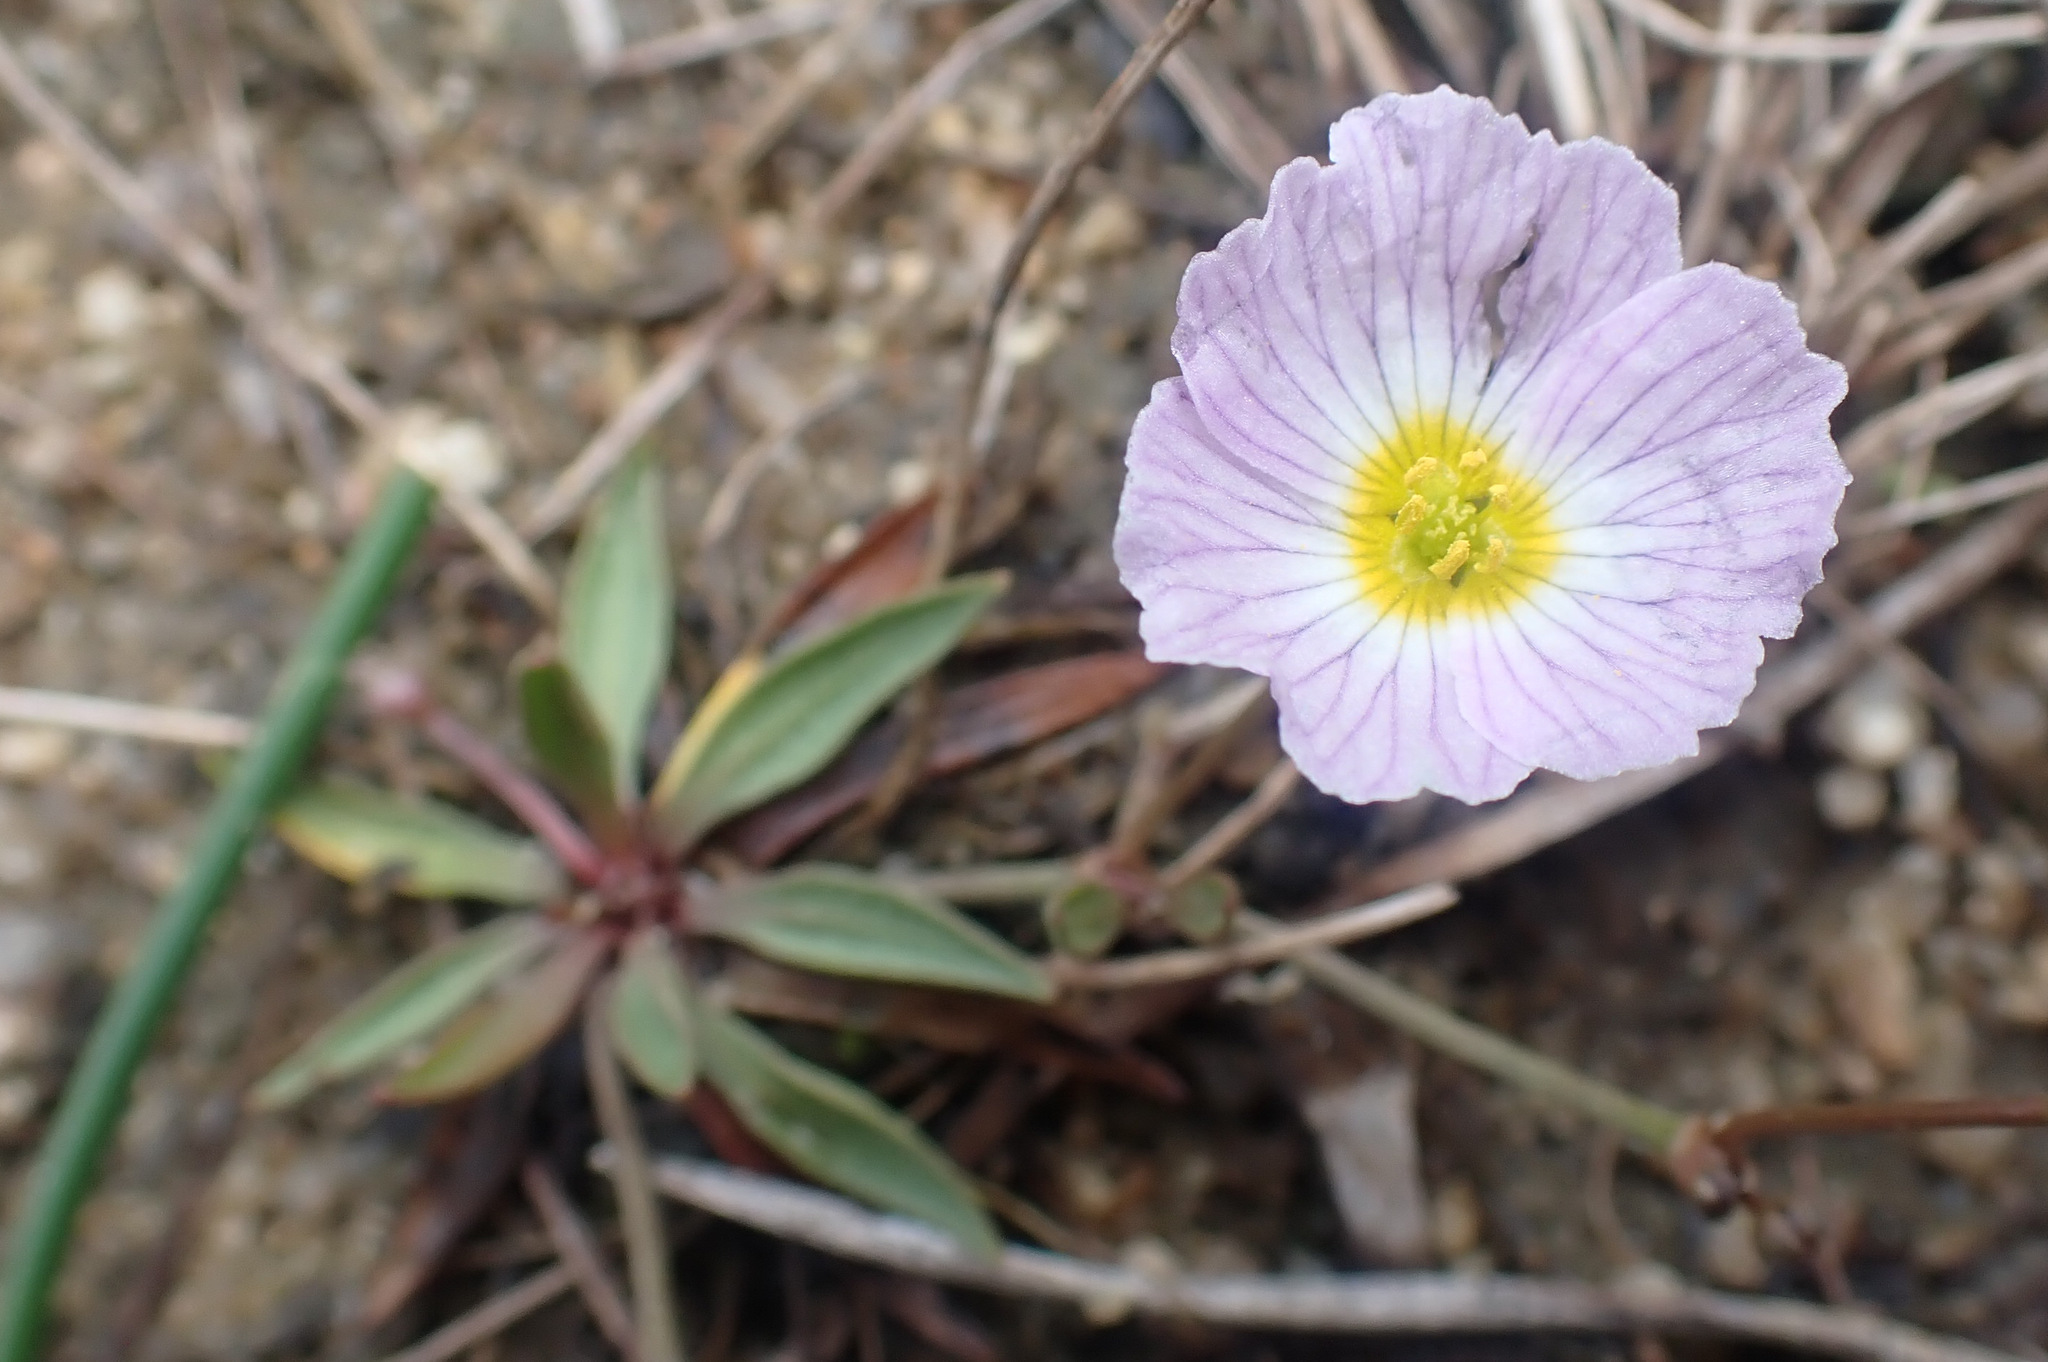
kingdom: Plantae
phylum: Tracheophyta
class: Liliopsida
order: Alismatales
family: Alismataceae
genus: Baldellia
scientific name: Baldellia repens
